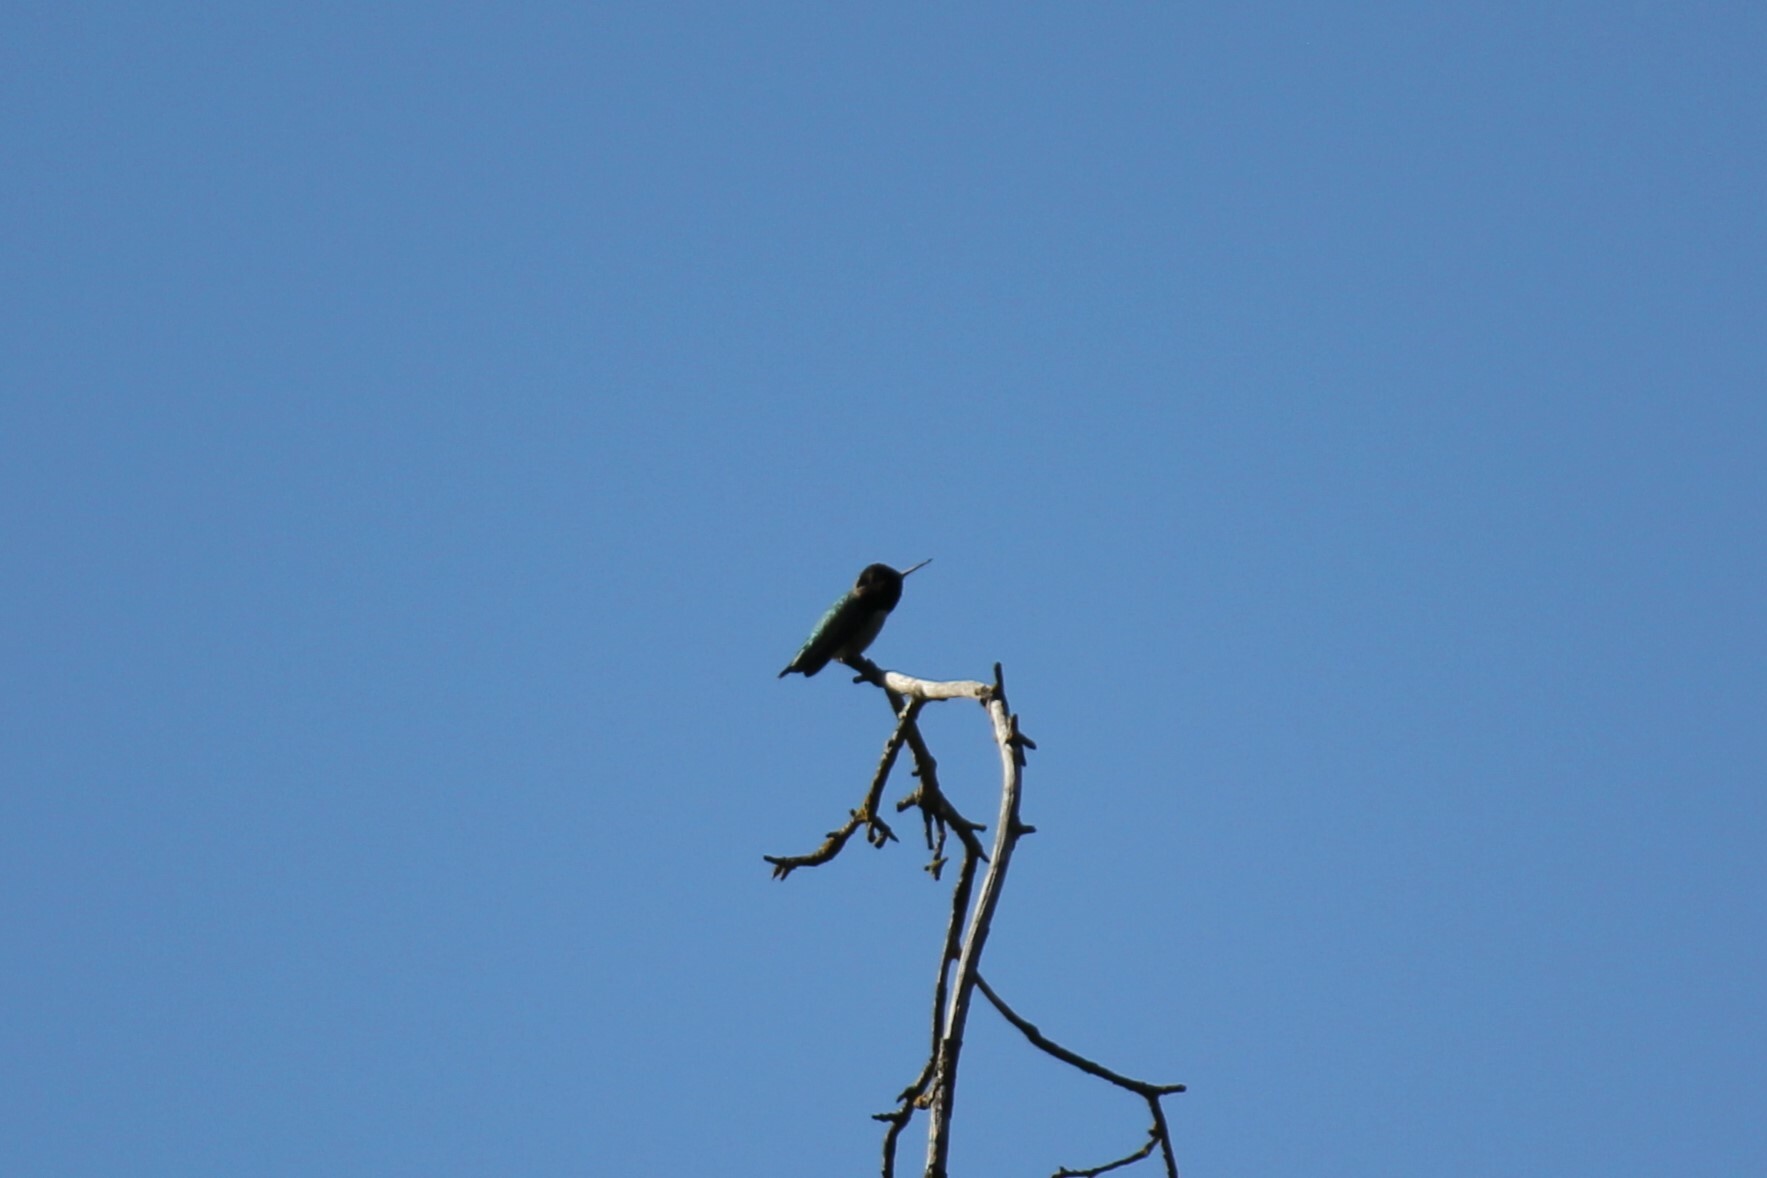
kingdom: Animalia
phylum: Chordata
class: Aves
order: Apodiformes
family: Trochilidae
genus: Calypte
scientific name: Calypte anna
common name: Anna's hummingbird
